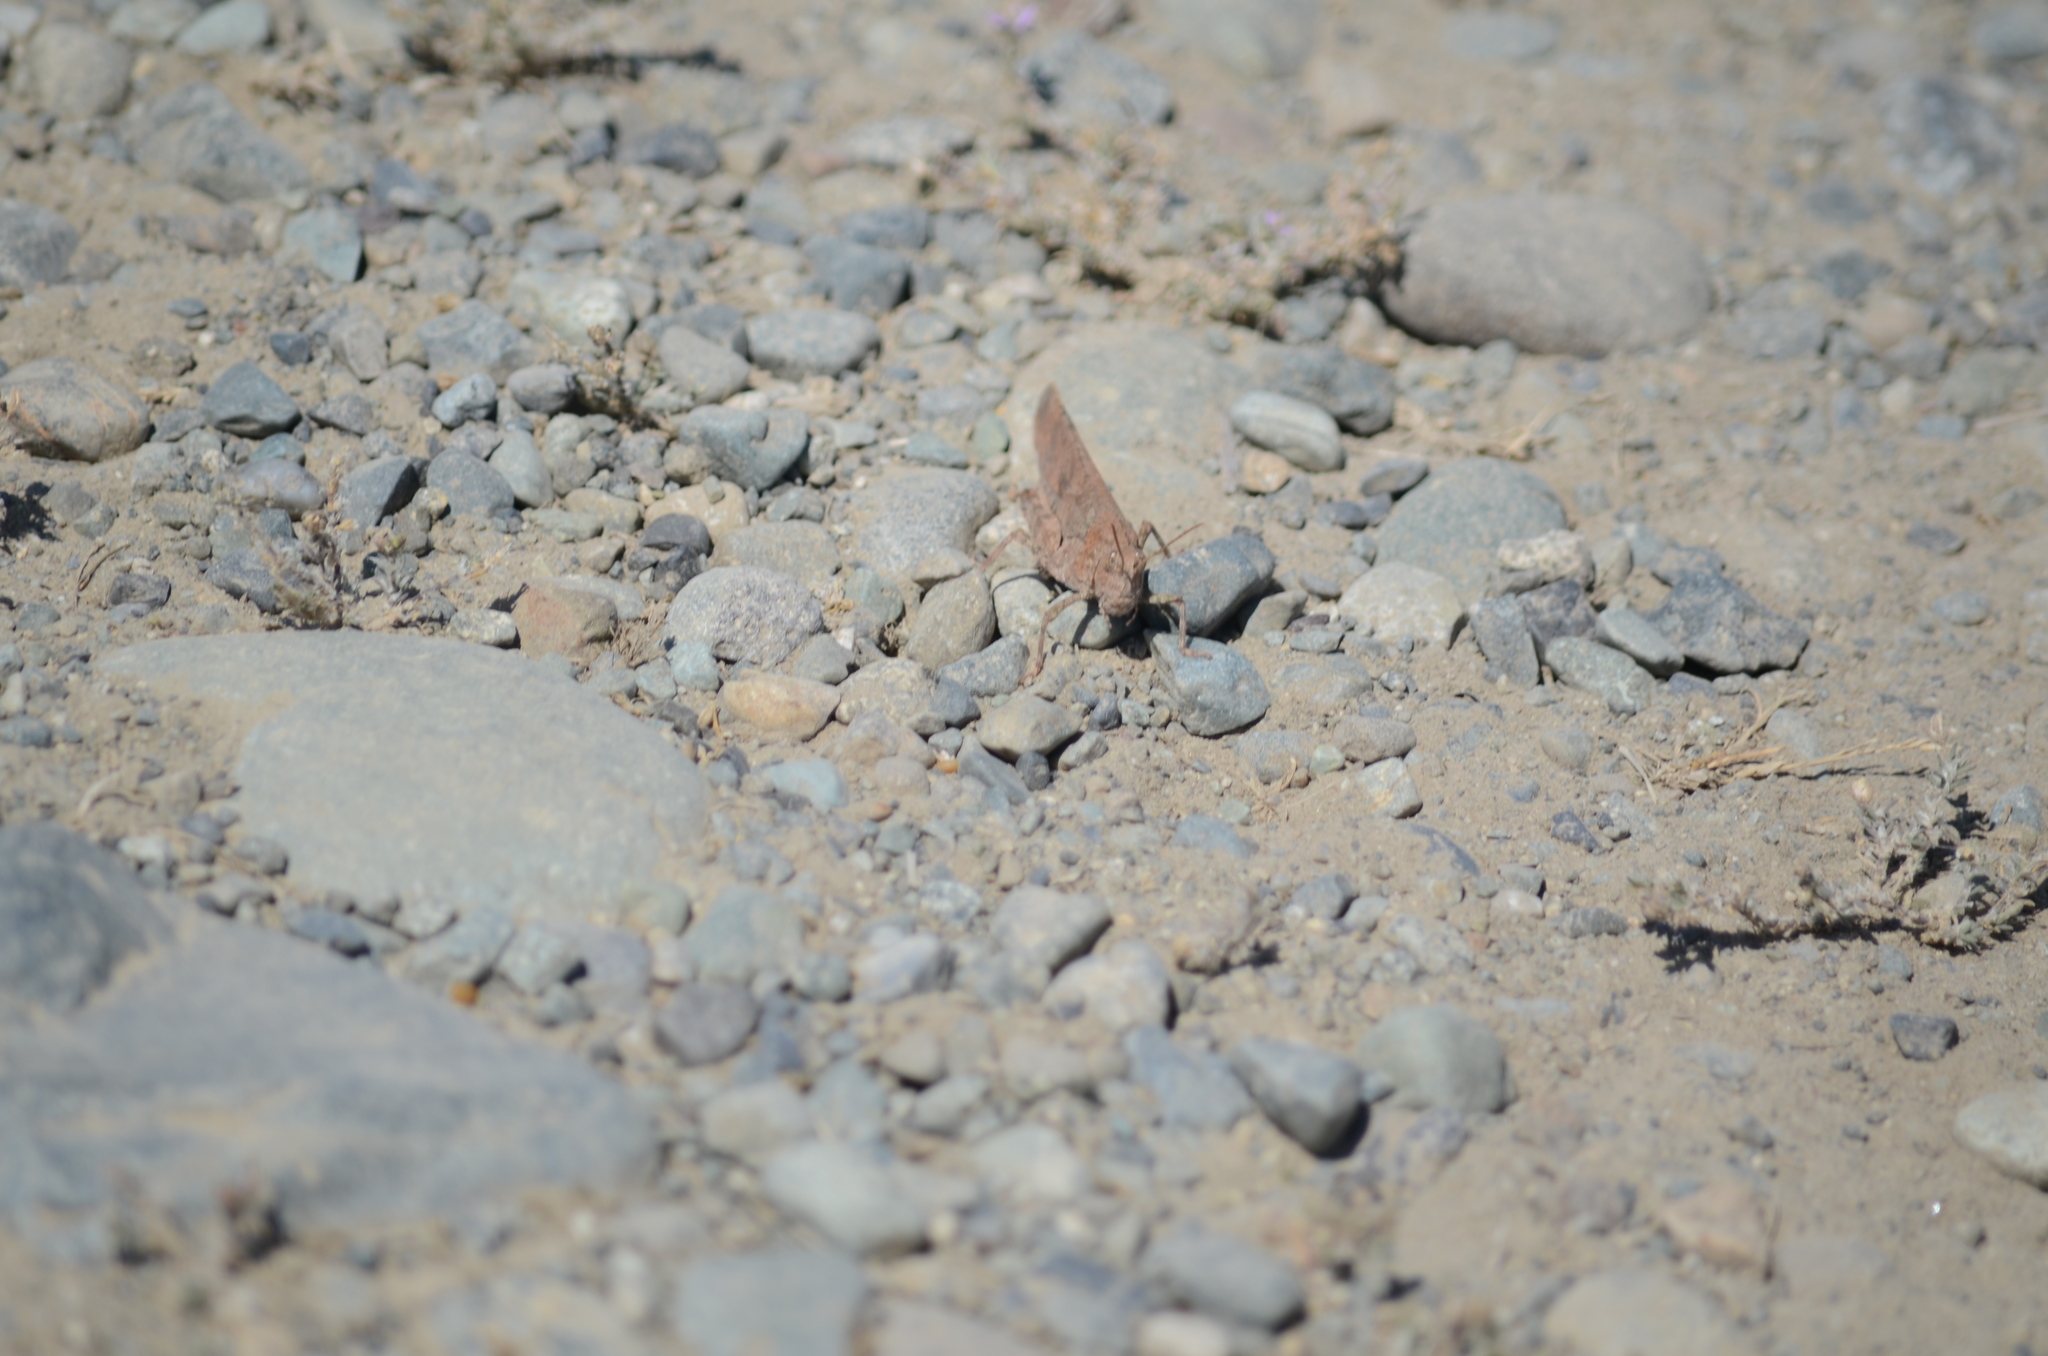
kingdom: Animalia
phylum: Arthropoda
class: Insecta
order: Orthoptera
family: Acrididae
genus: Dissosteira
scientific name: Dissosteira carolina
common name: Carolina grasshopper
